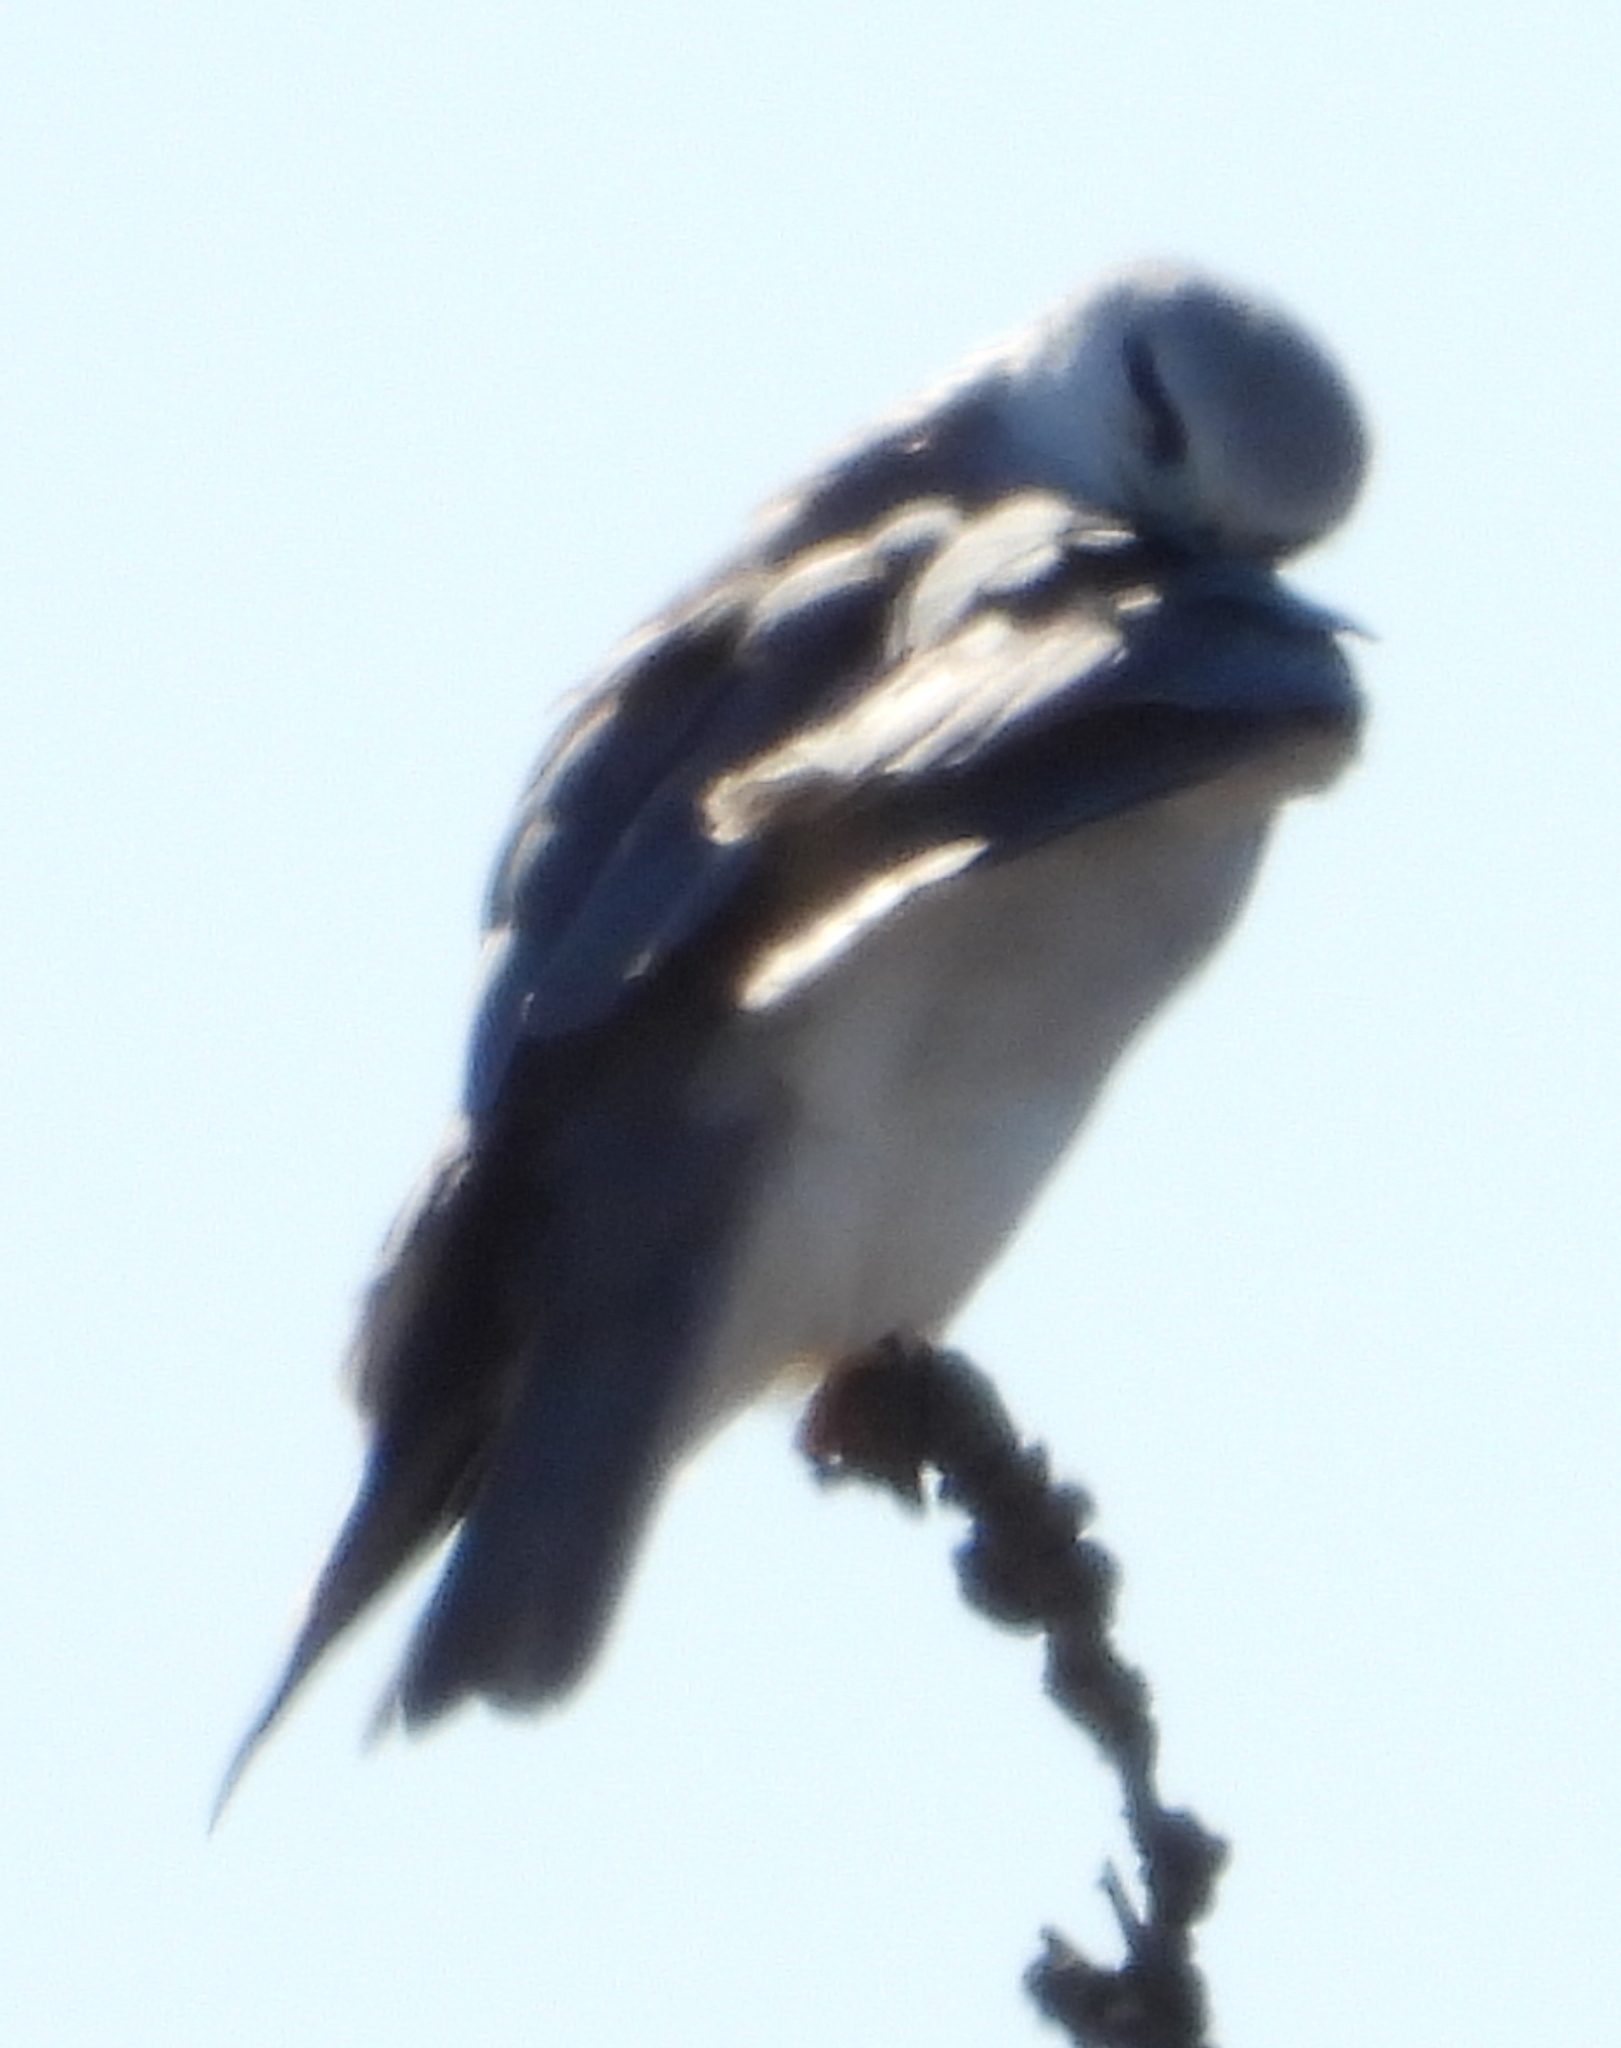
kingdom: Animalia
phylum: Chordata
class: Aves
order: Accipitriformes
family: Accipitridae
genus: Elanus
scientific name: Elanus caeruleus
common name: Black-winged kite
